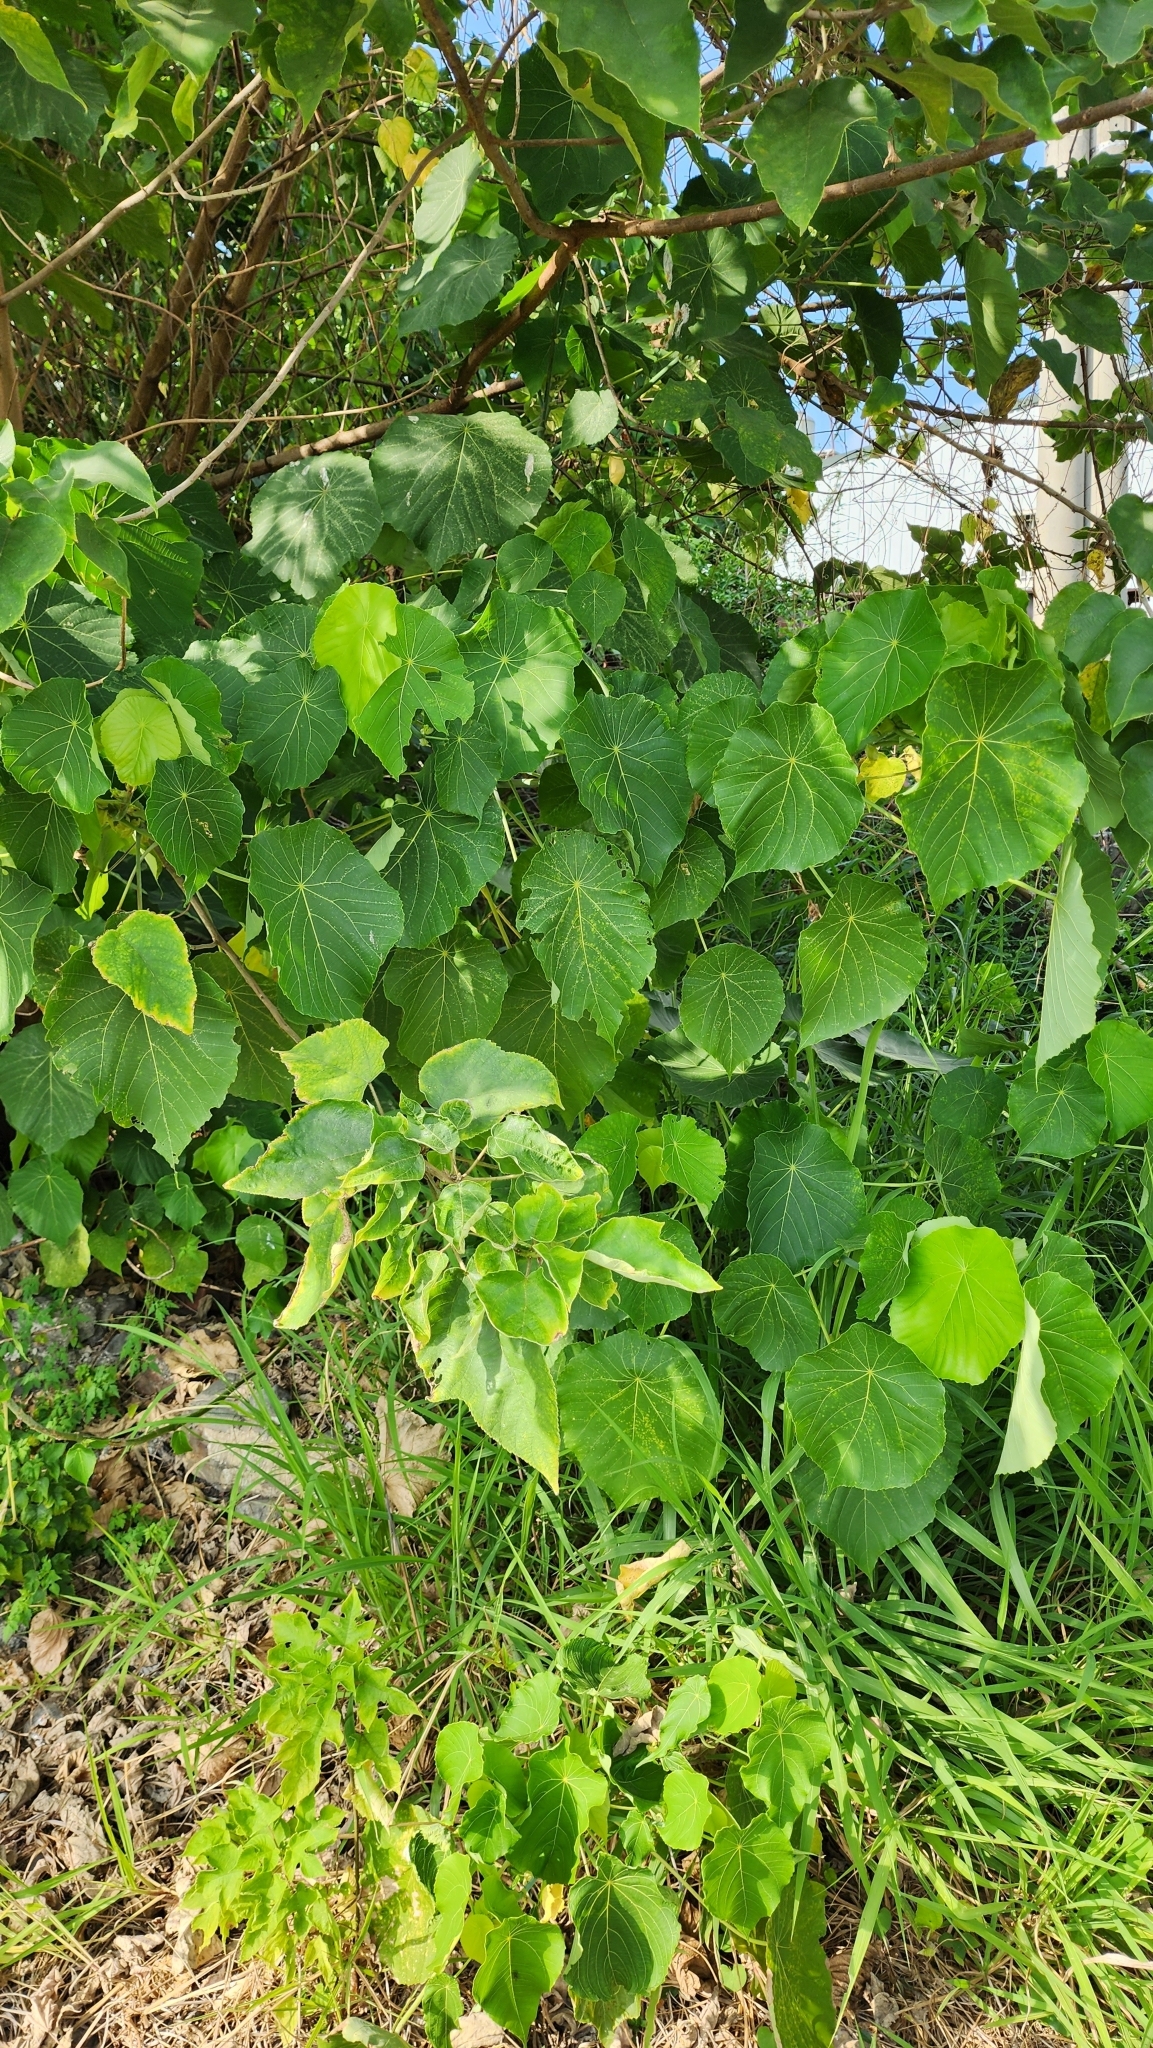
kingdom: Plantae
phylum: Tracheophyta
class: Magnoliopsida
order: Malpighiales
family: Euphorbiaceae
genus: Macaranga
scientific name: Macaranga tanarius
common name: Parasol leaf tree
